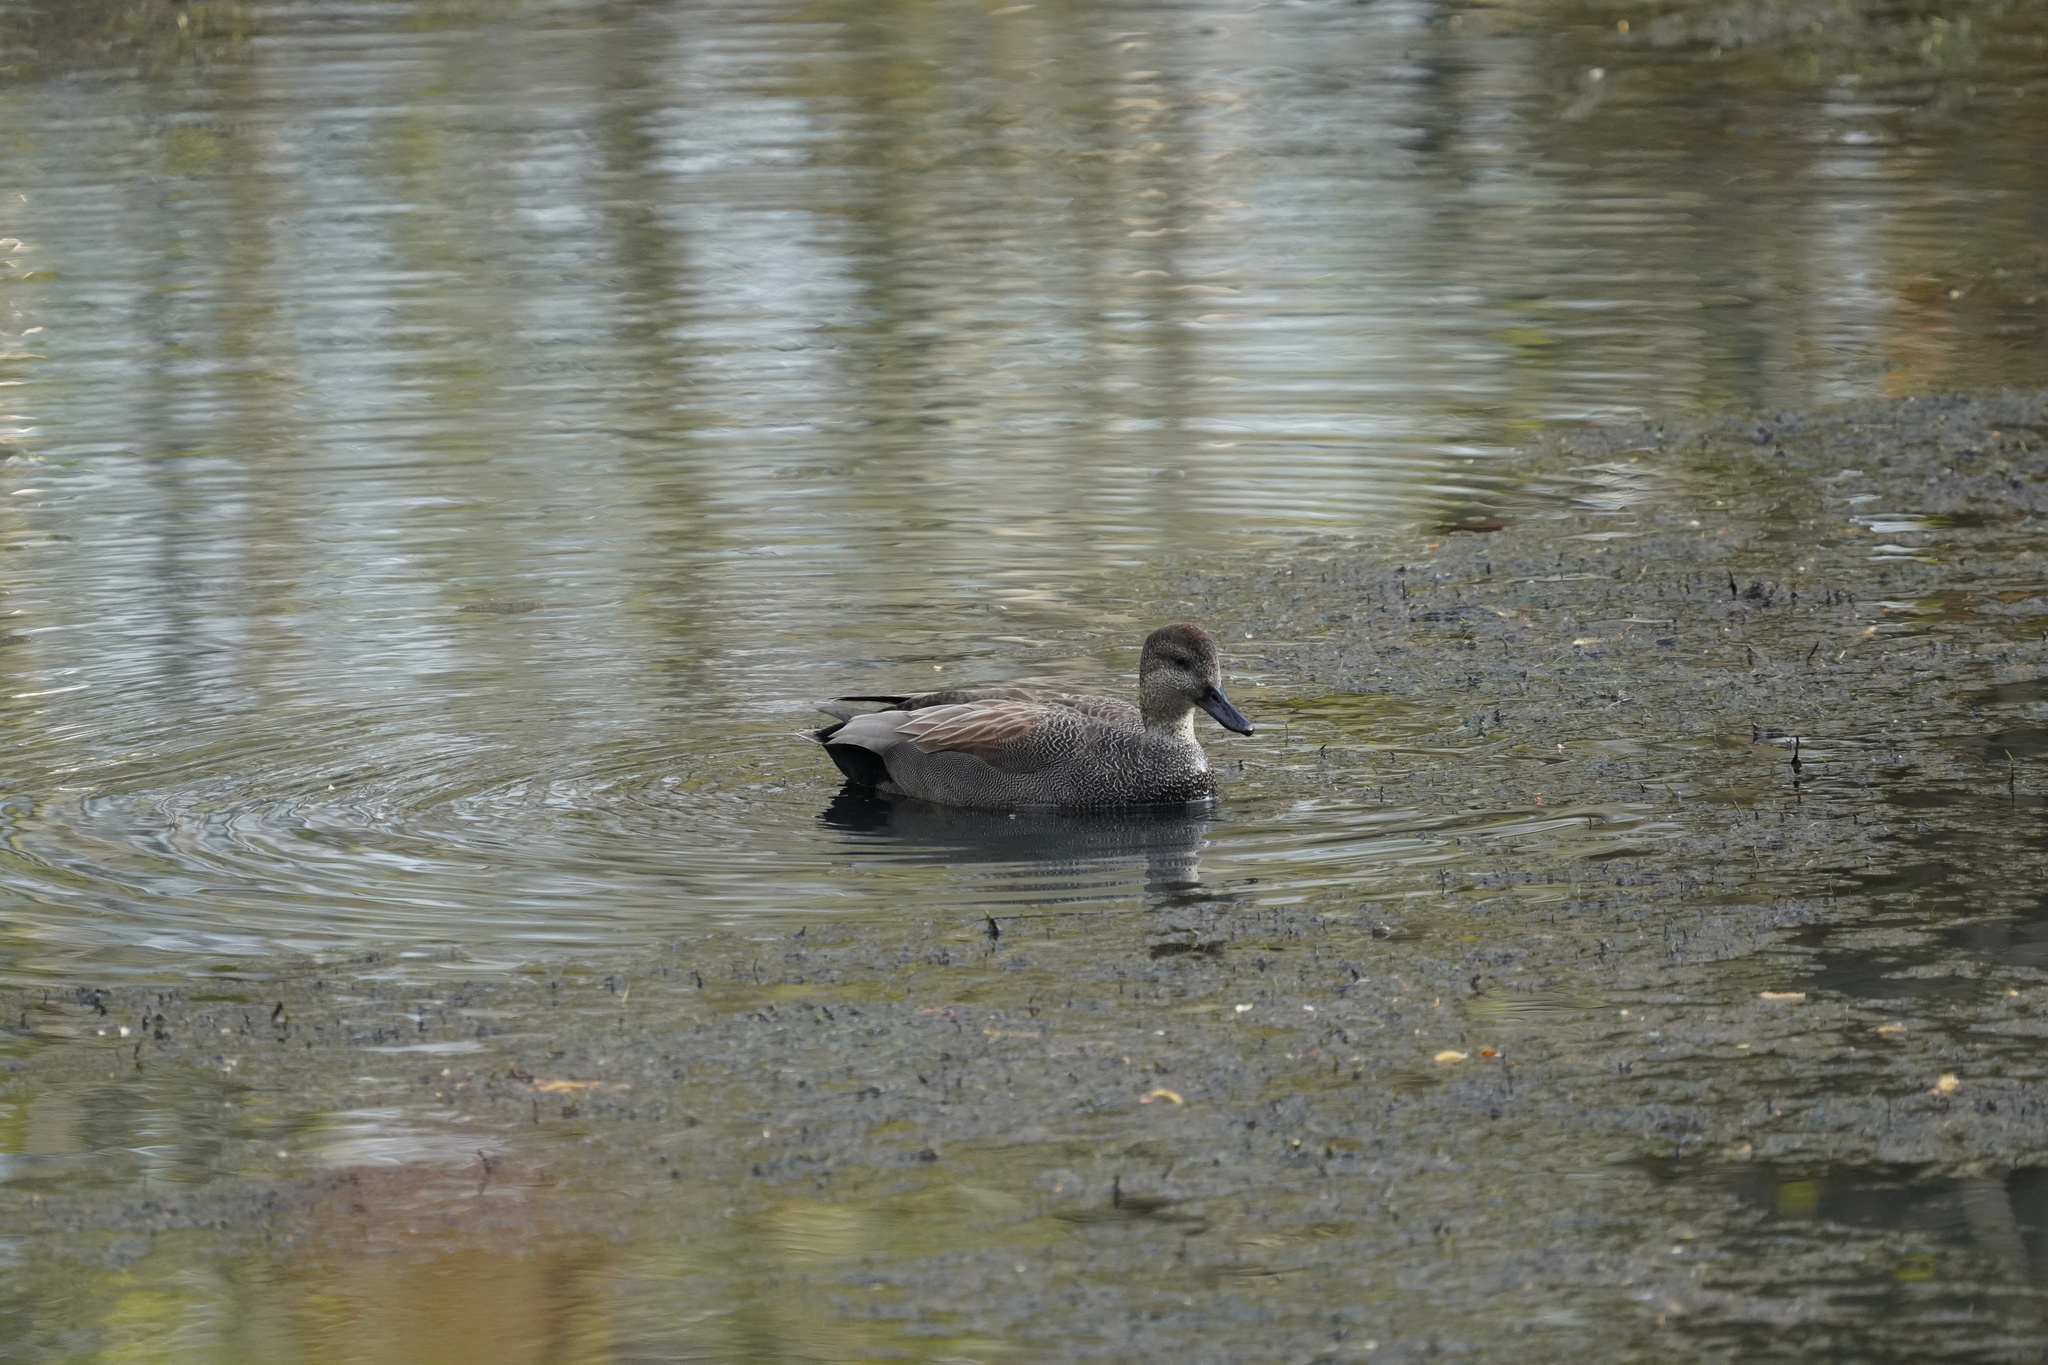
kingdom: Animalia
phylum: Chordata
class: Aves
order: Anseriformes
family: Anatidae
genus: Mareca
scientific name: Mareca strepera
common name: Gadwall
